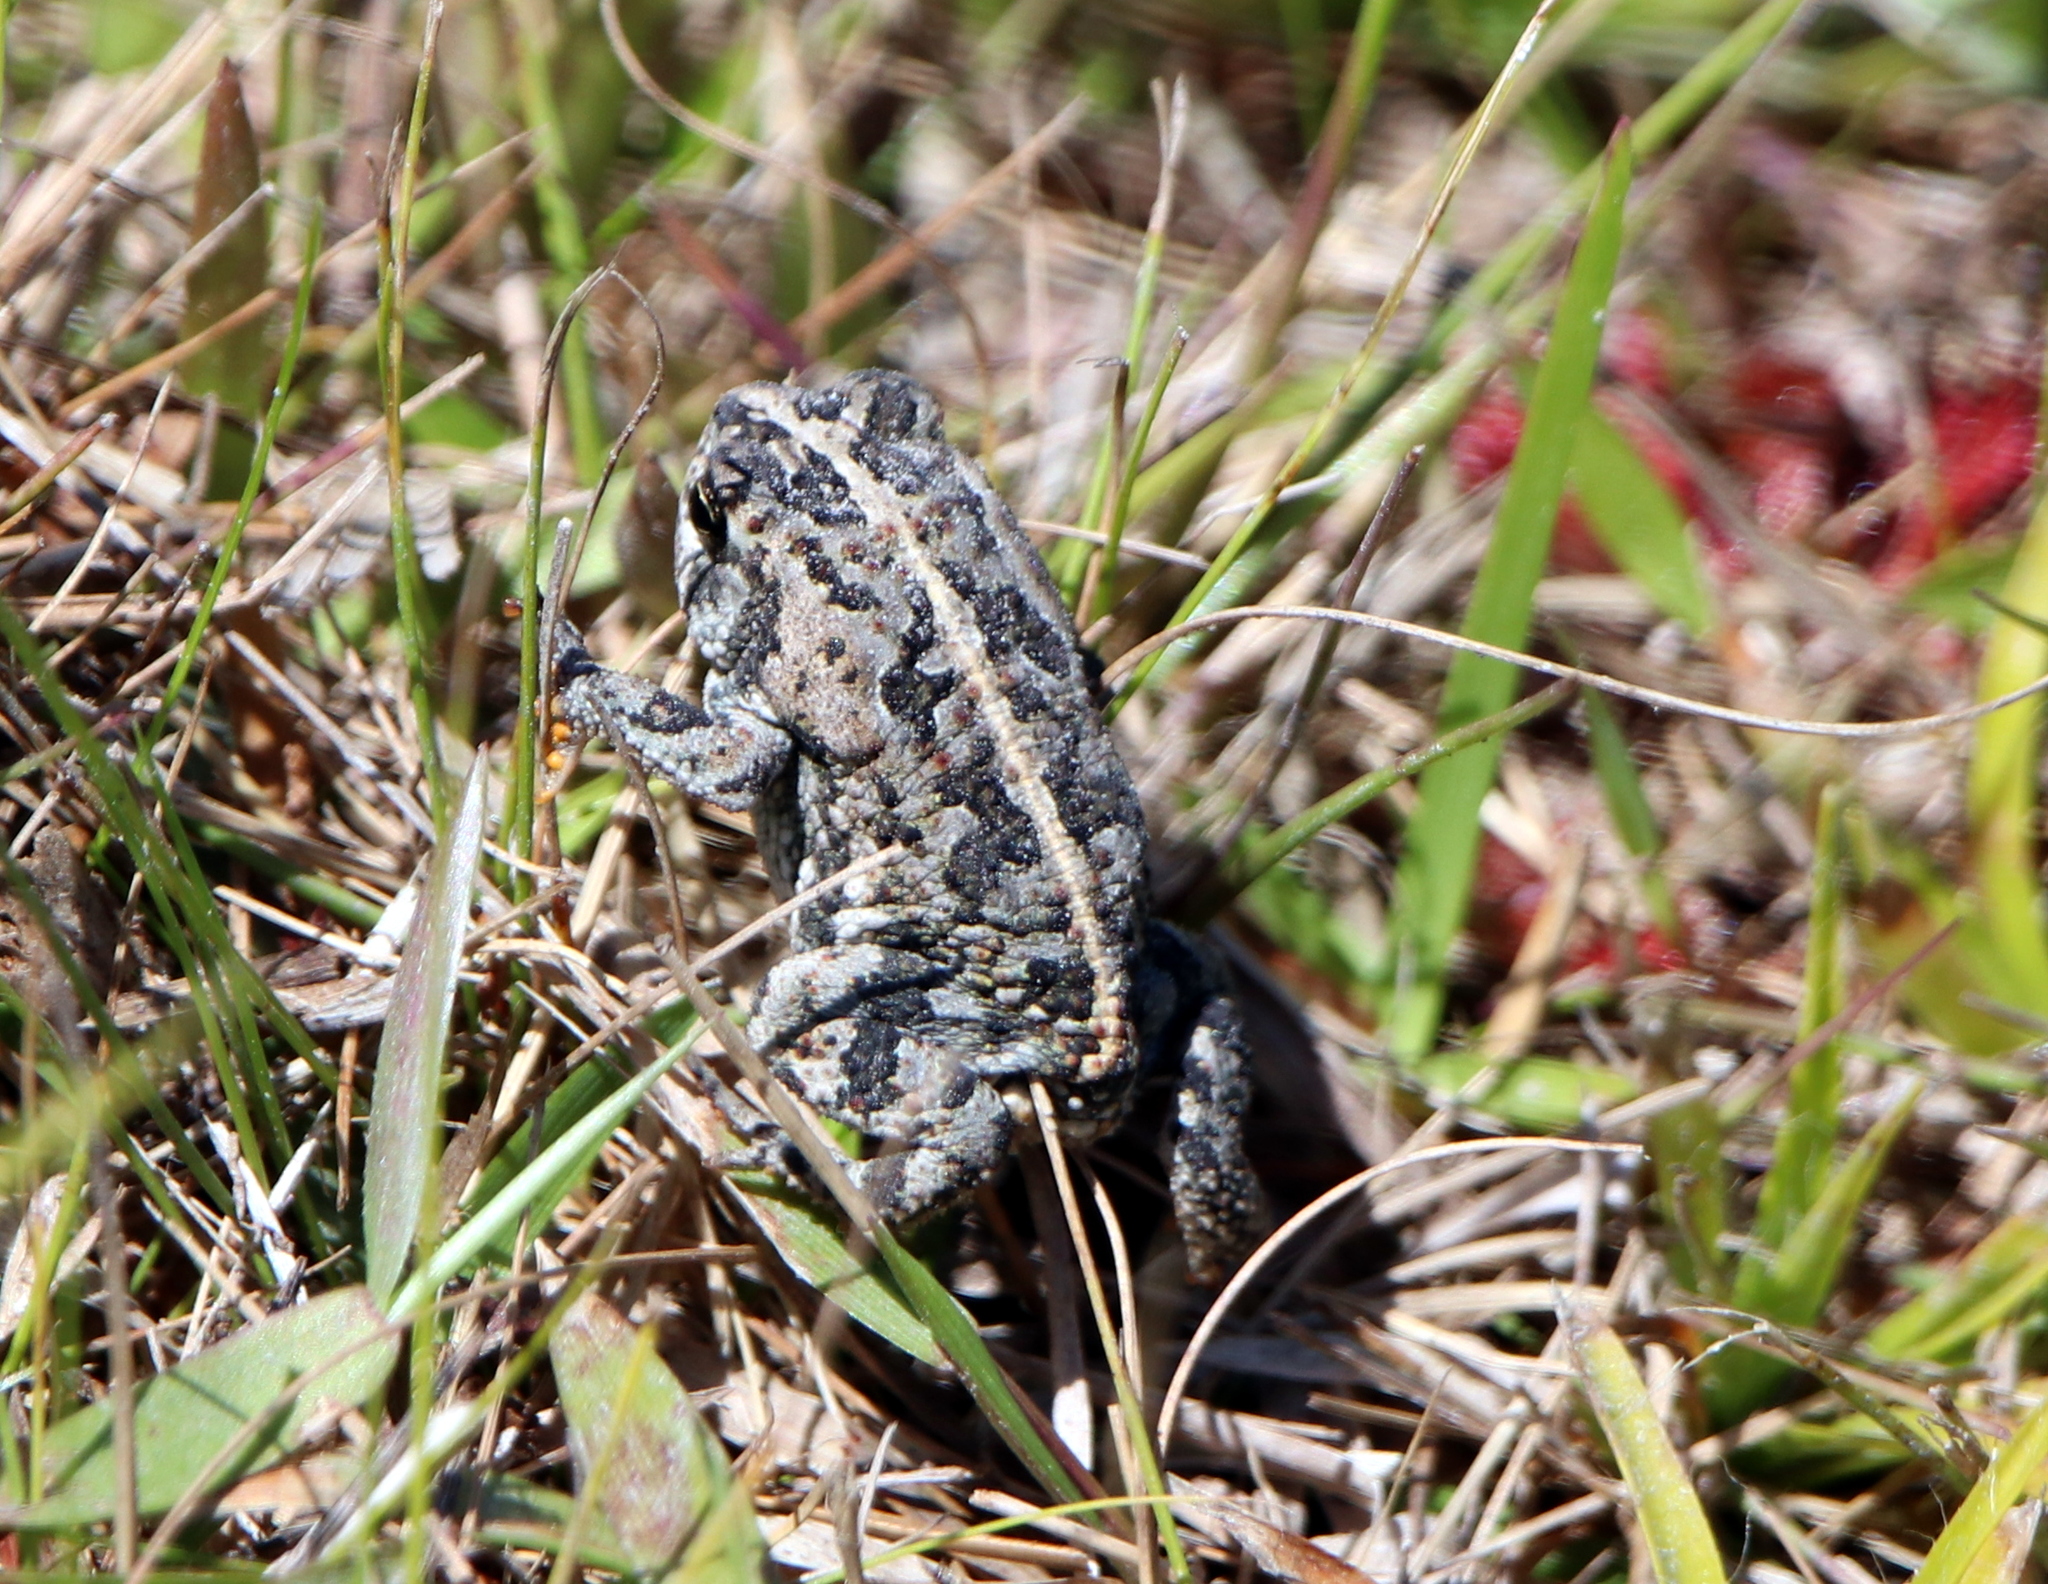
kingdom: Animalia
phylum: Chordata
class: Amphibia
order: Anura
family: Bufonidae
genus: Anaxyrus
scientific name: Anaxyrus quercicus
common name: Oak toad
